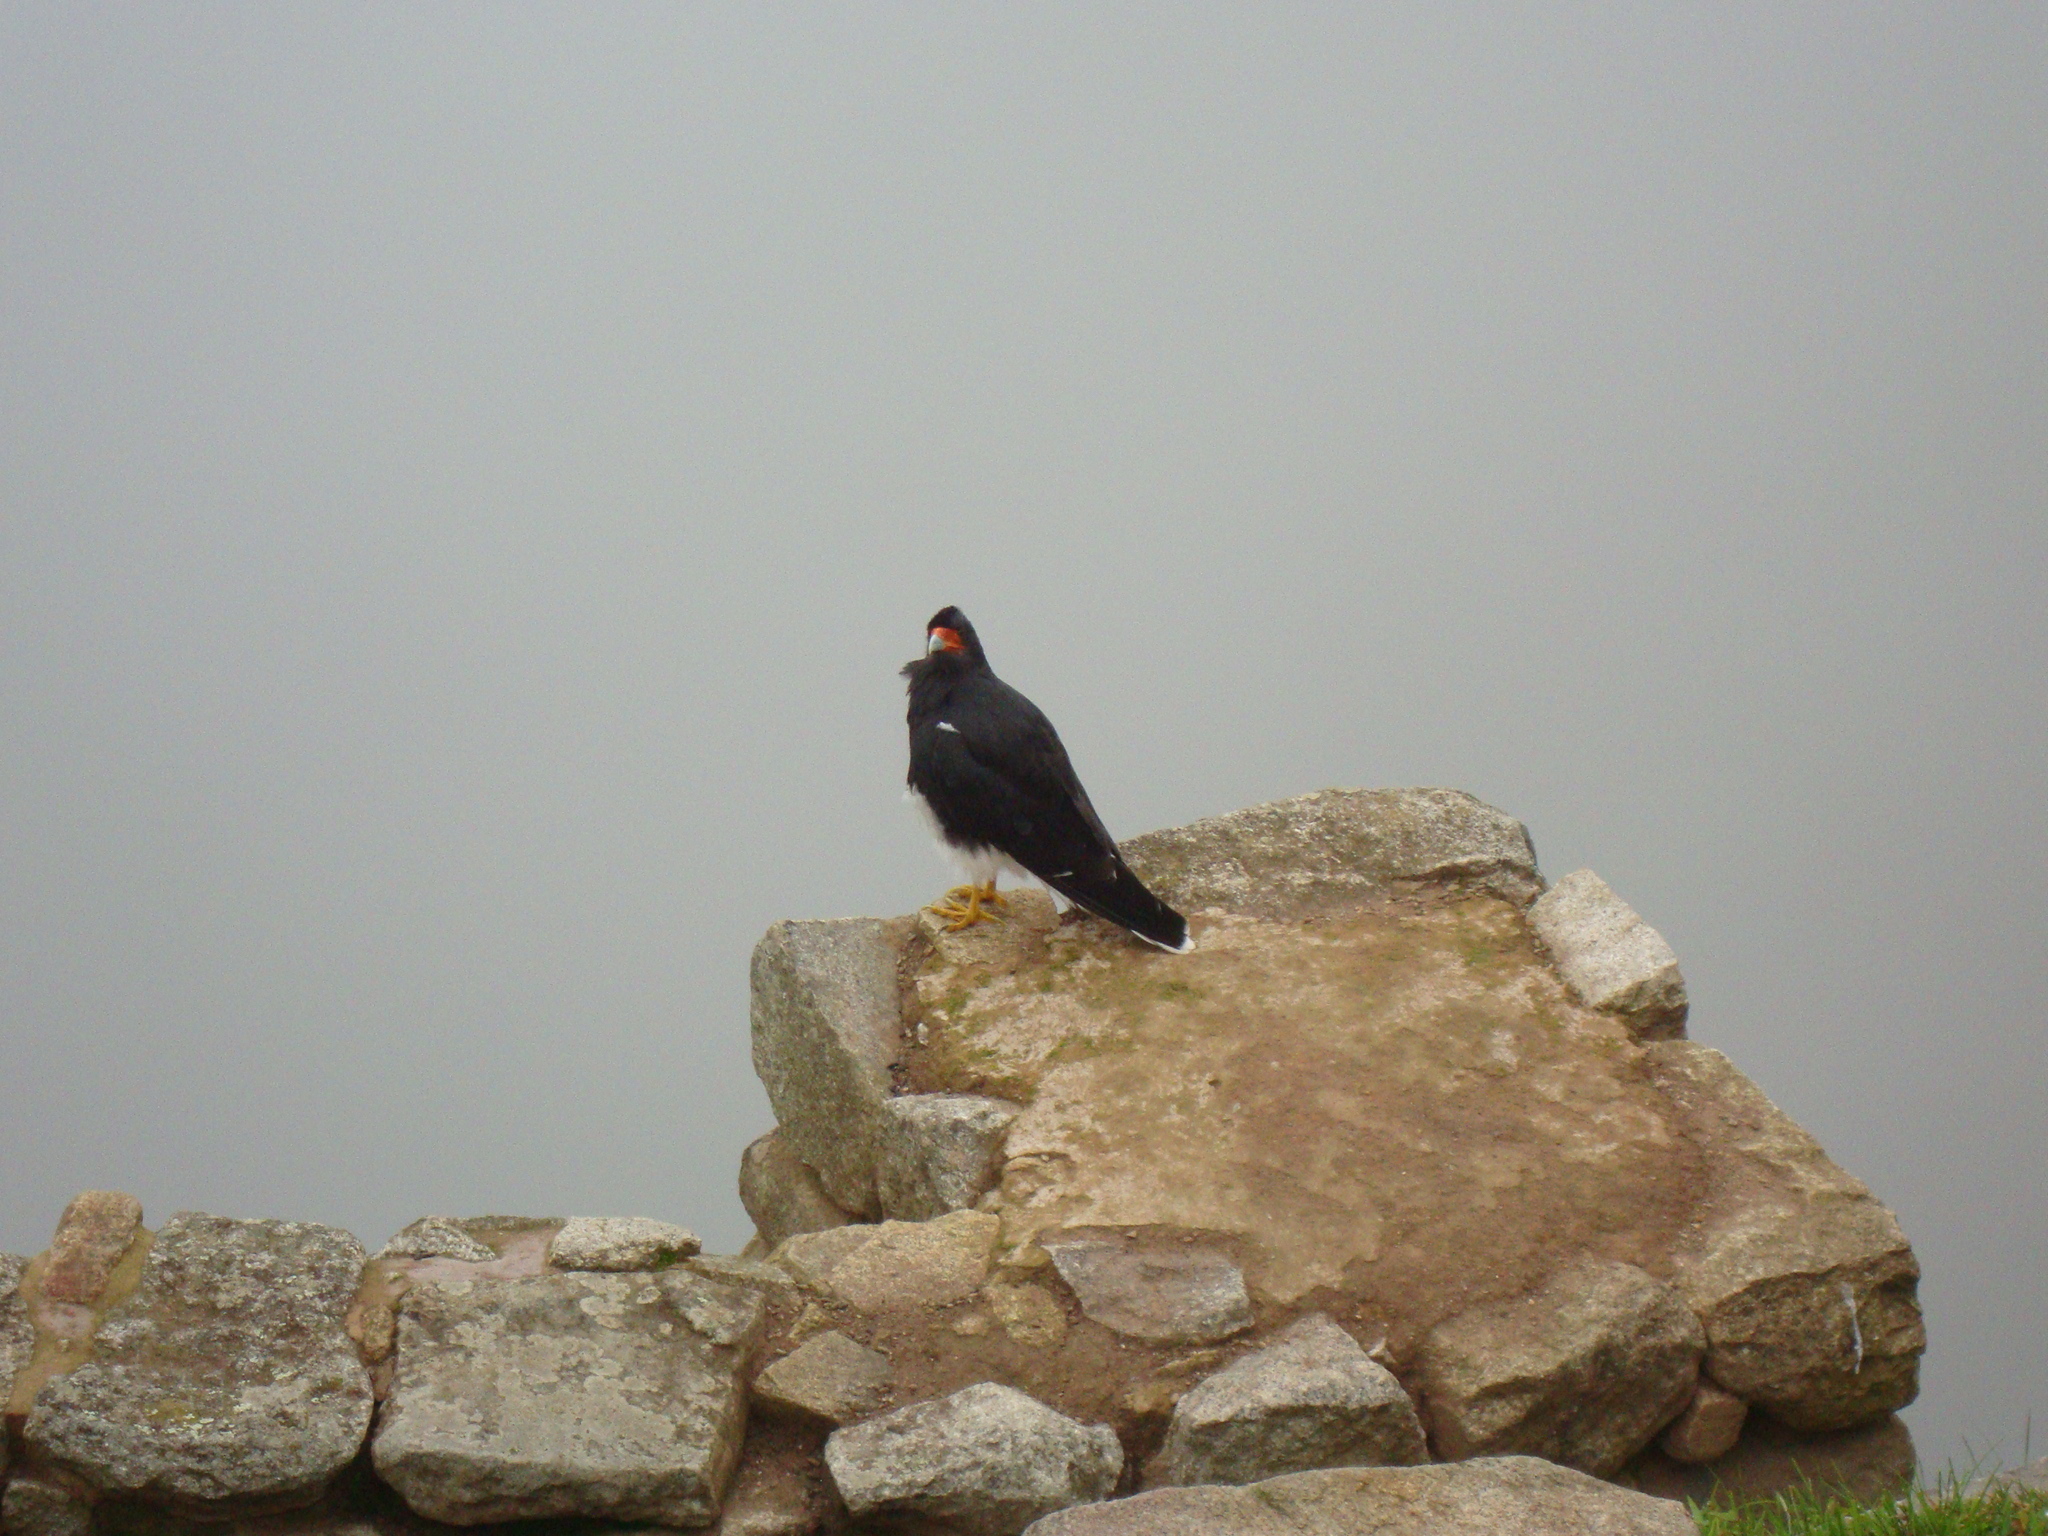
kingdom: Animalia
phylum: Chordata
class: Aves
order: Falconiformes
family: Falconidae
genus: Daptrius
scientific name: Daptrius
